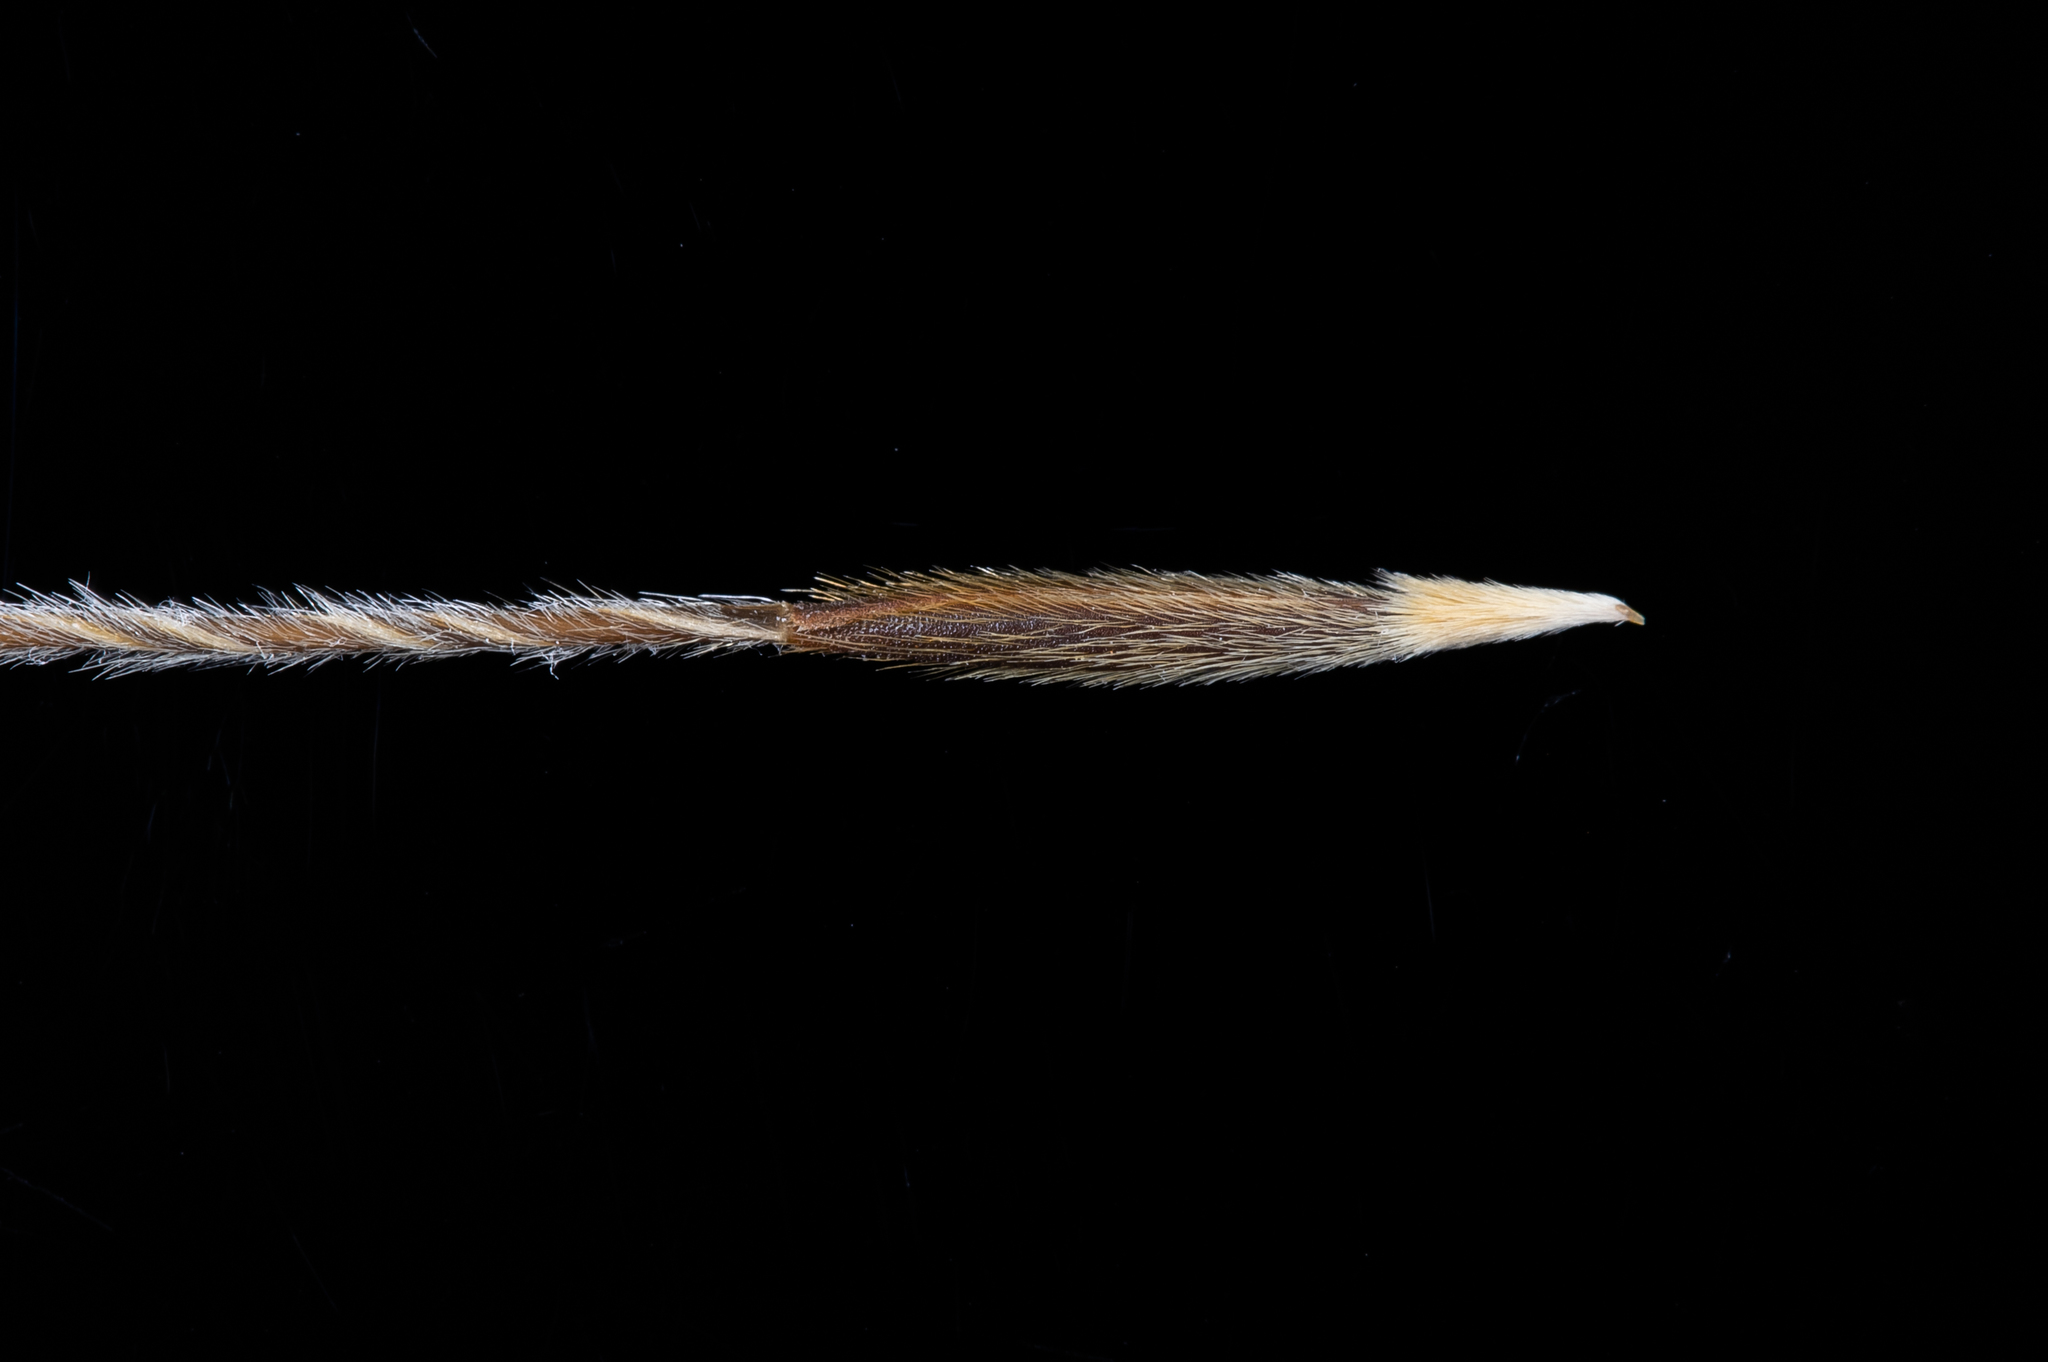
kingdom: Plantae
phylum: Tracheophyta
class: Liliopsida
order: Poales
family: Poaceae
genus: Austrostipa
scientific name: Austrostipa semibarbata
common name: Fibrous spear grass
